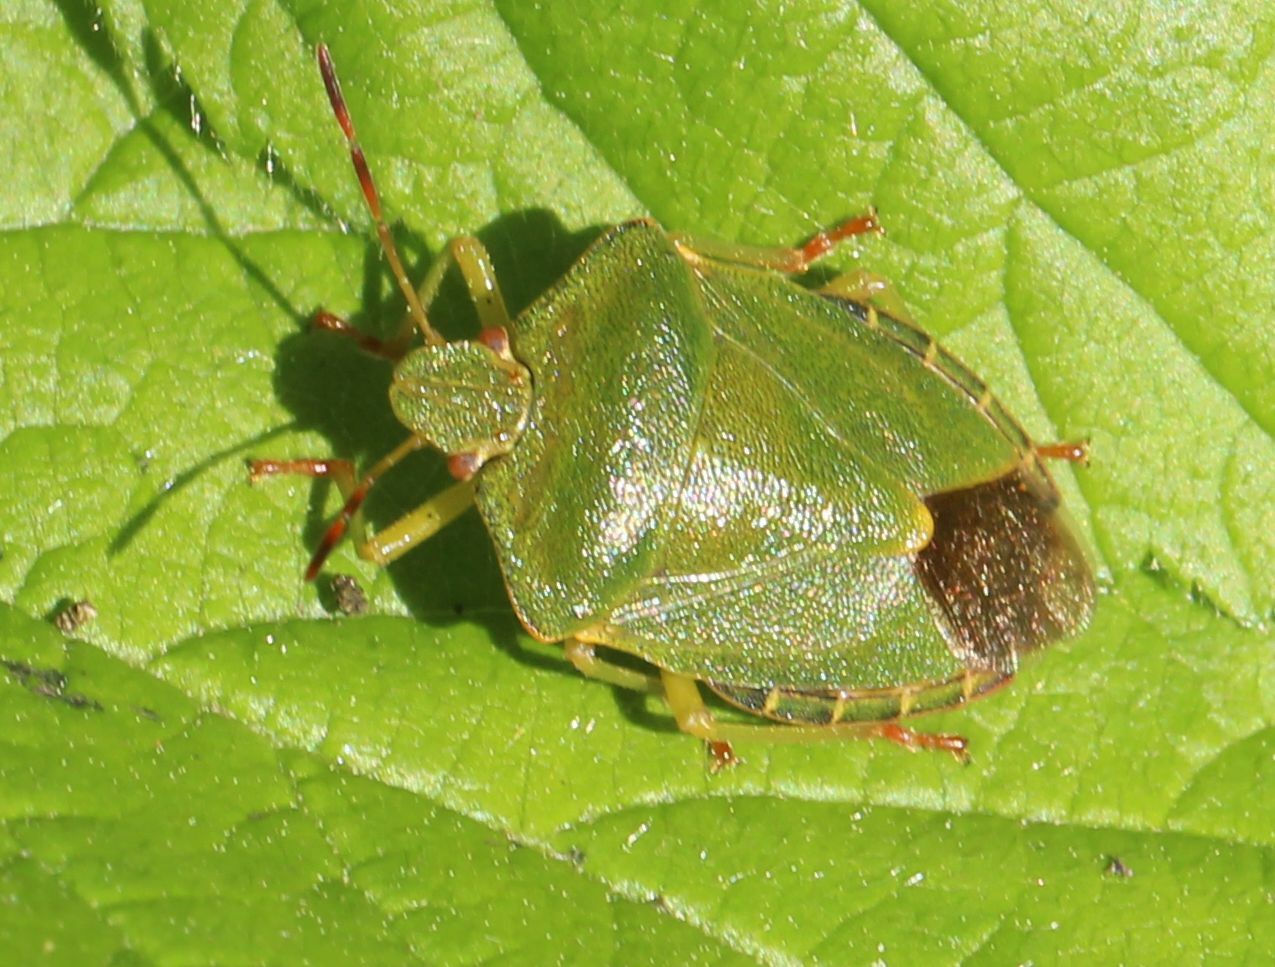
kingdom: Animalia
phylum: Arthropoda
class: Insecta
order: Hemiptera
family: Pentatomidae
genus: Palomena
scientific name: Palomena prasina
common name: Green shieldbug
